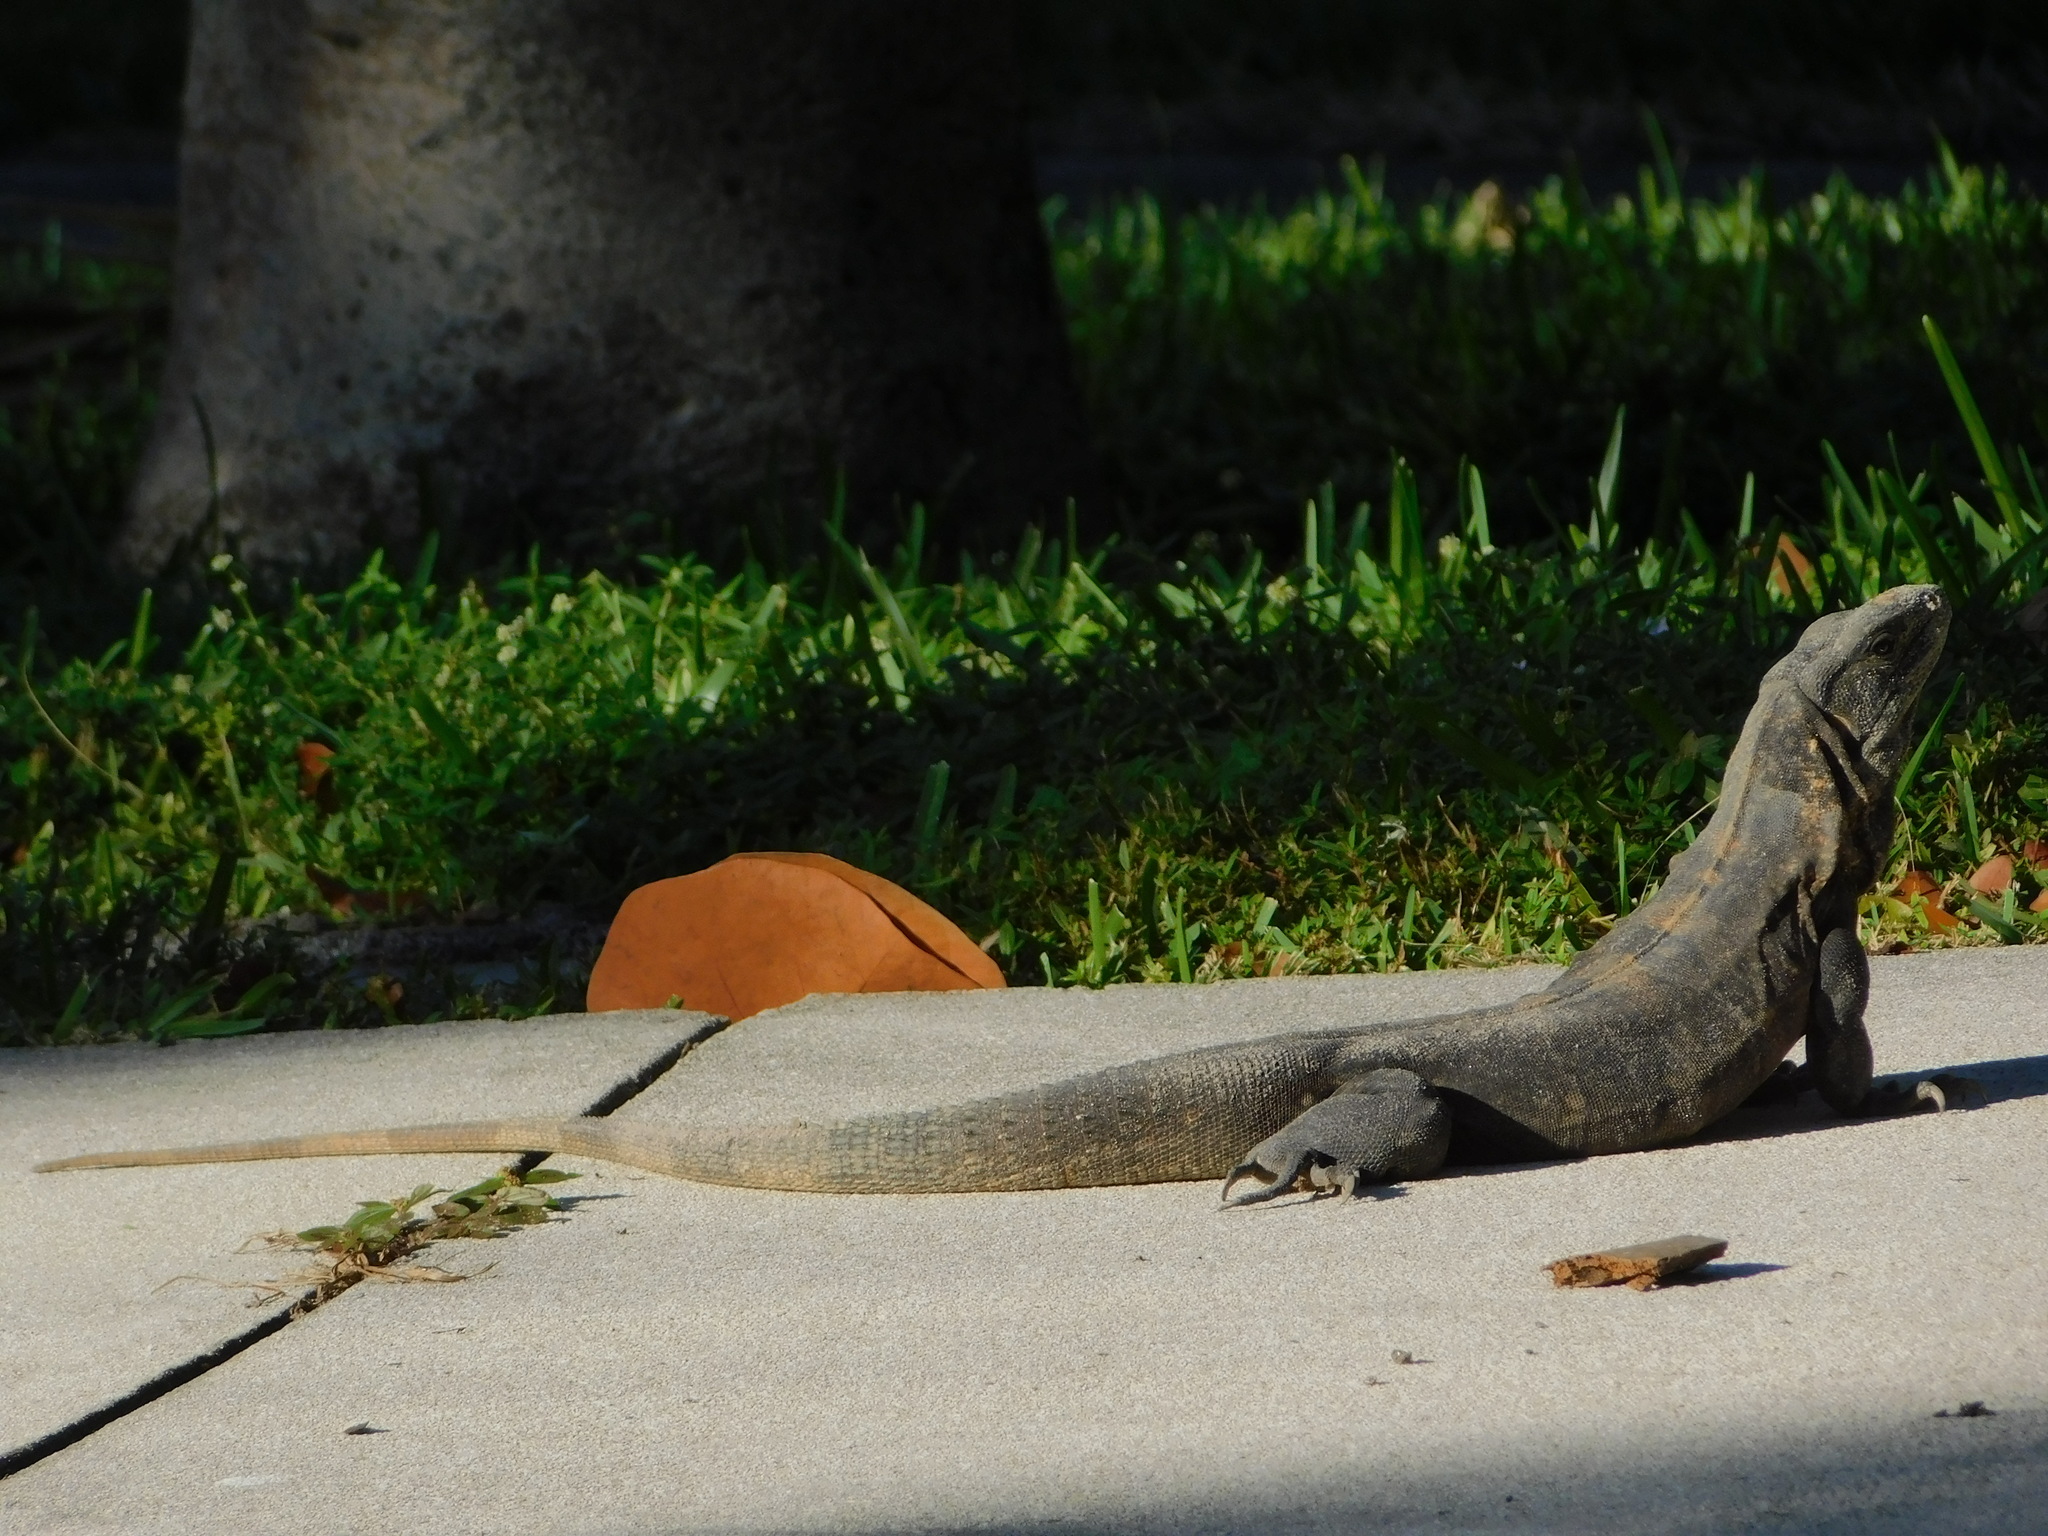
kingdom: Animalia
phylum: Chordata
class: Squamata
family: Iguanidae
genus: Ctenosaura
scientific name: Ctenosaura similis
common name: Black spiny-tailed iguana
